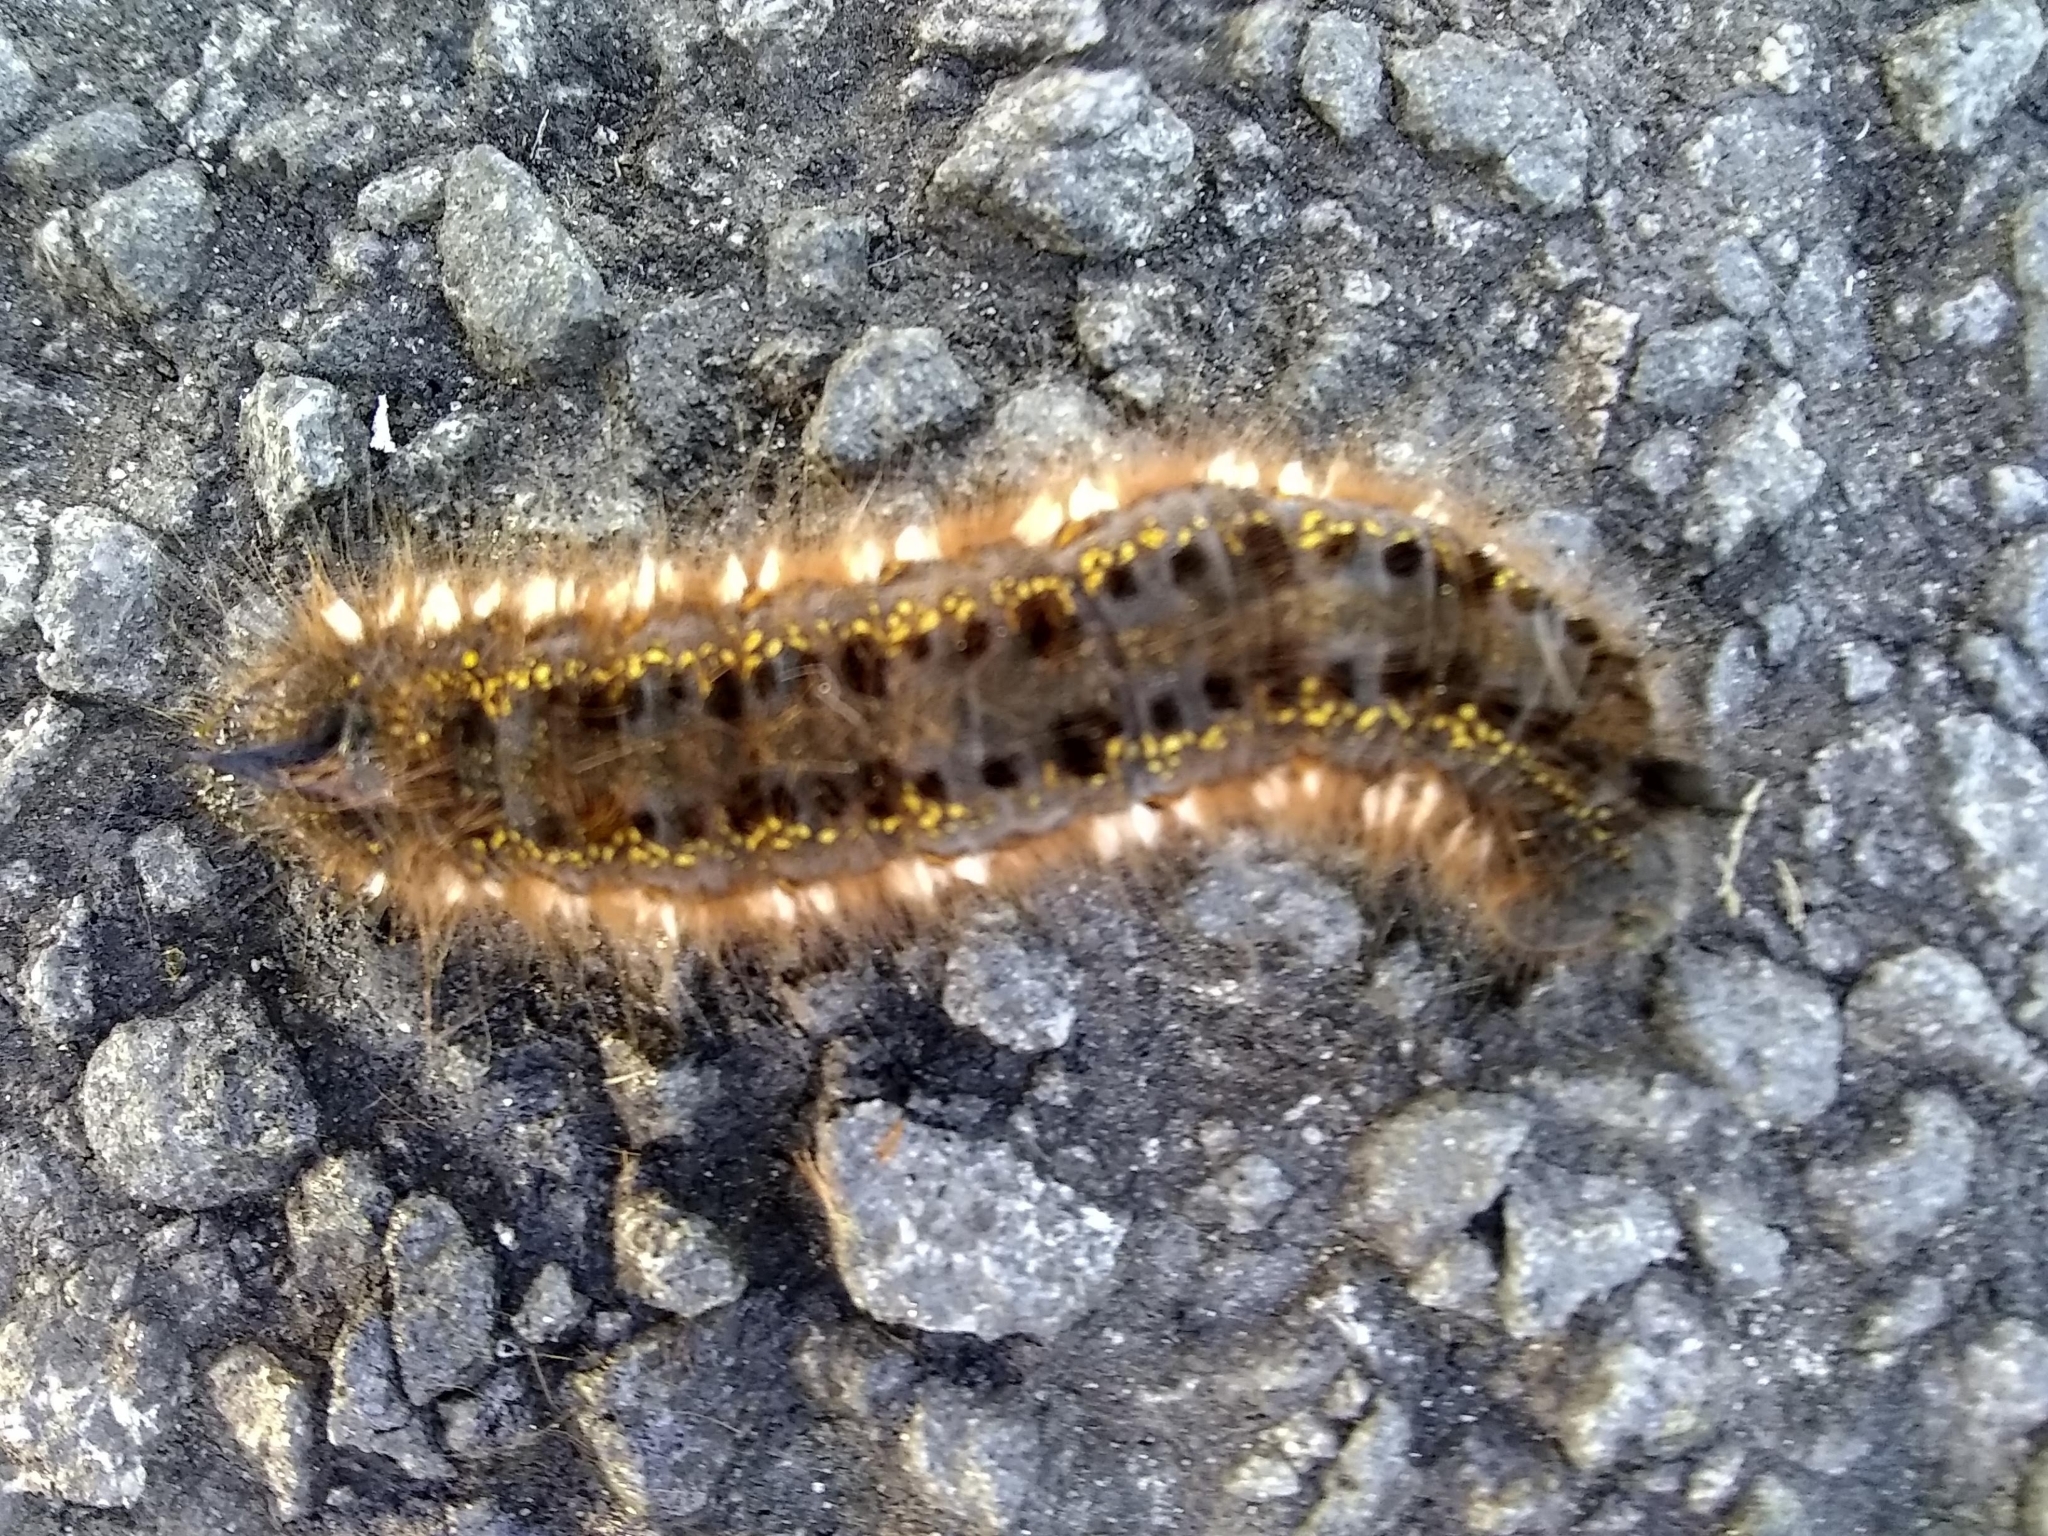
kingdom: Animalia
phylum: Arthropoda
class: Insecta
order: Lepidoptera
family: Lasiocampidae
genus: Euthrix
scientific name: Euthrix potatoria
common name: Drinker
